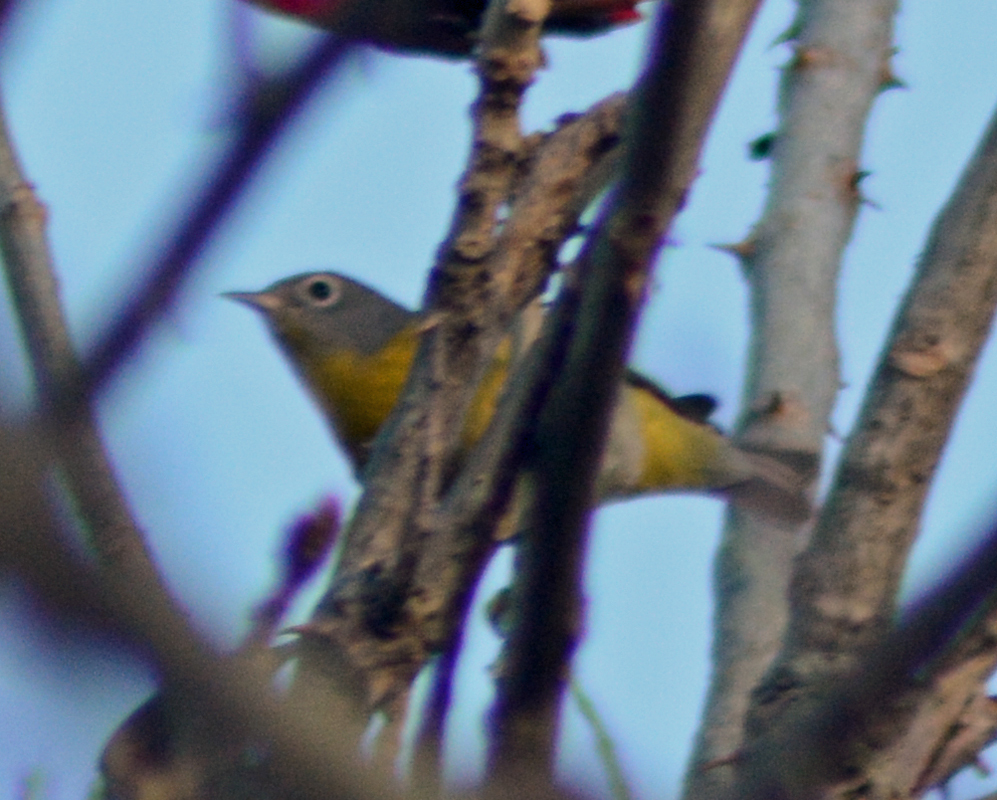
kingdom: Animalia
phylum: Chordata
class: Aves
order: Passeriformes
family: Parulidae
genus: Leiothlypis
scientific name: Leiothlypis ruficapilla
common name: Nashville warbler
